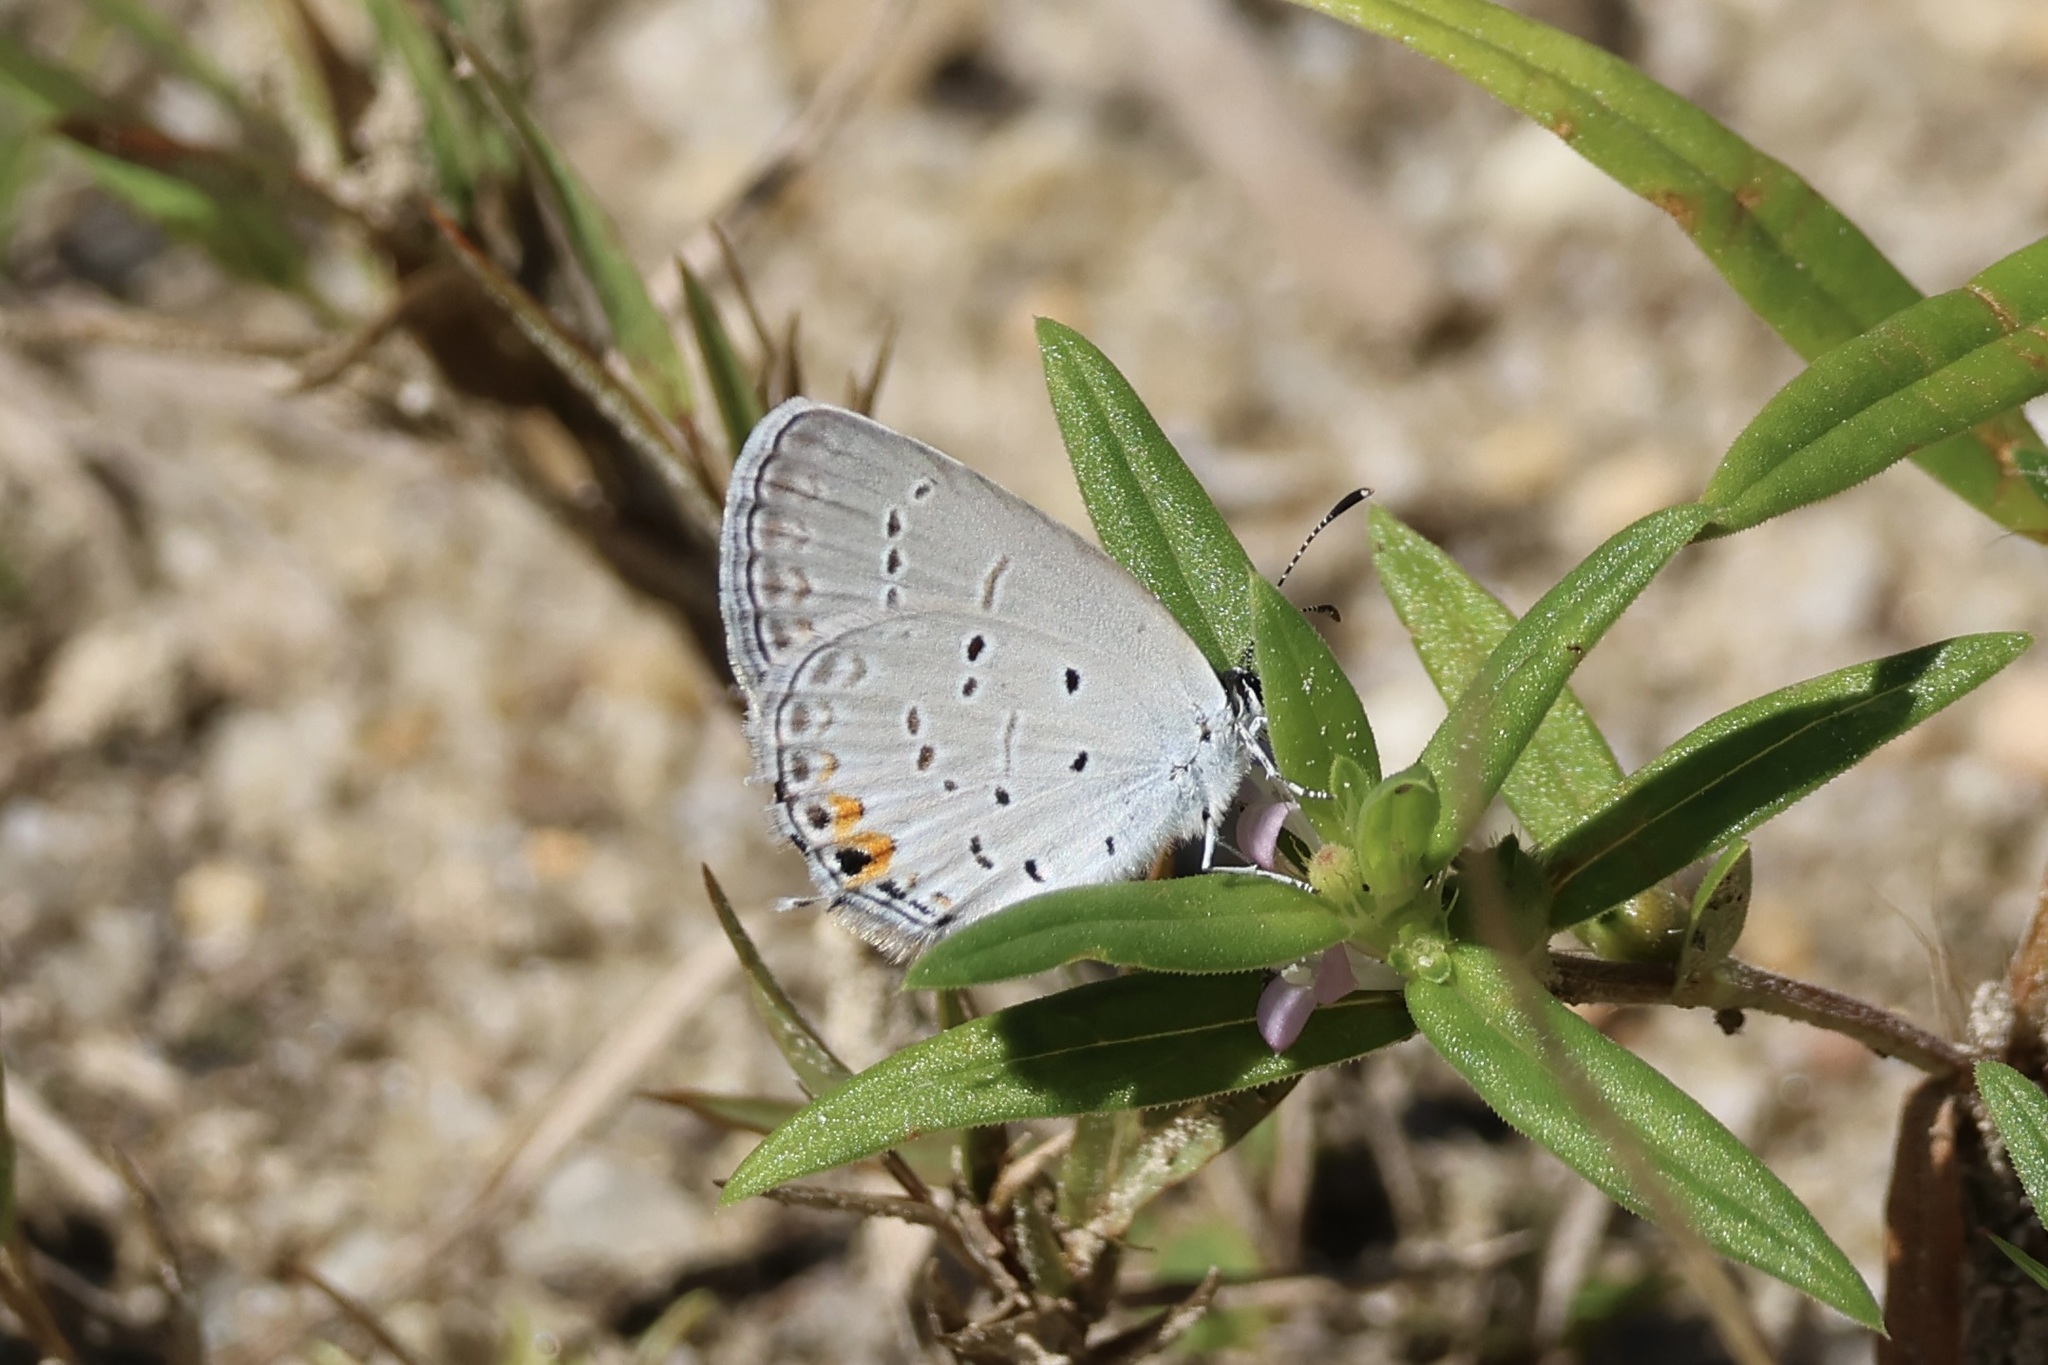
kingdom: Animalia
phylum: Arthropoda
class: Insecta
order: Lepidoptera
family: Lycaenidae
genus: Elkalyce
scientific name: Elkalyce comyntas
